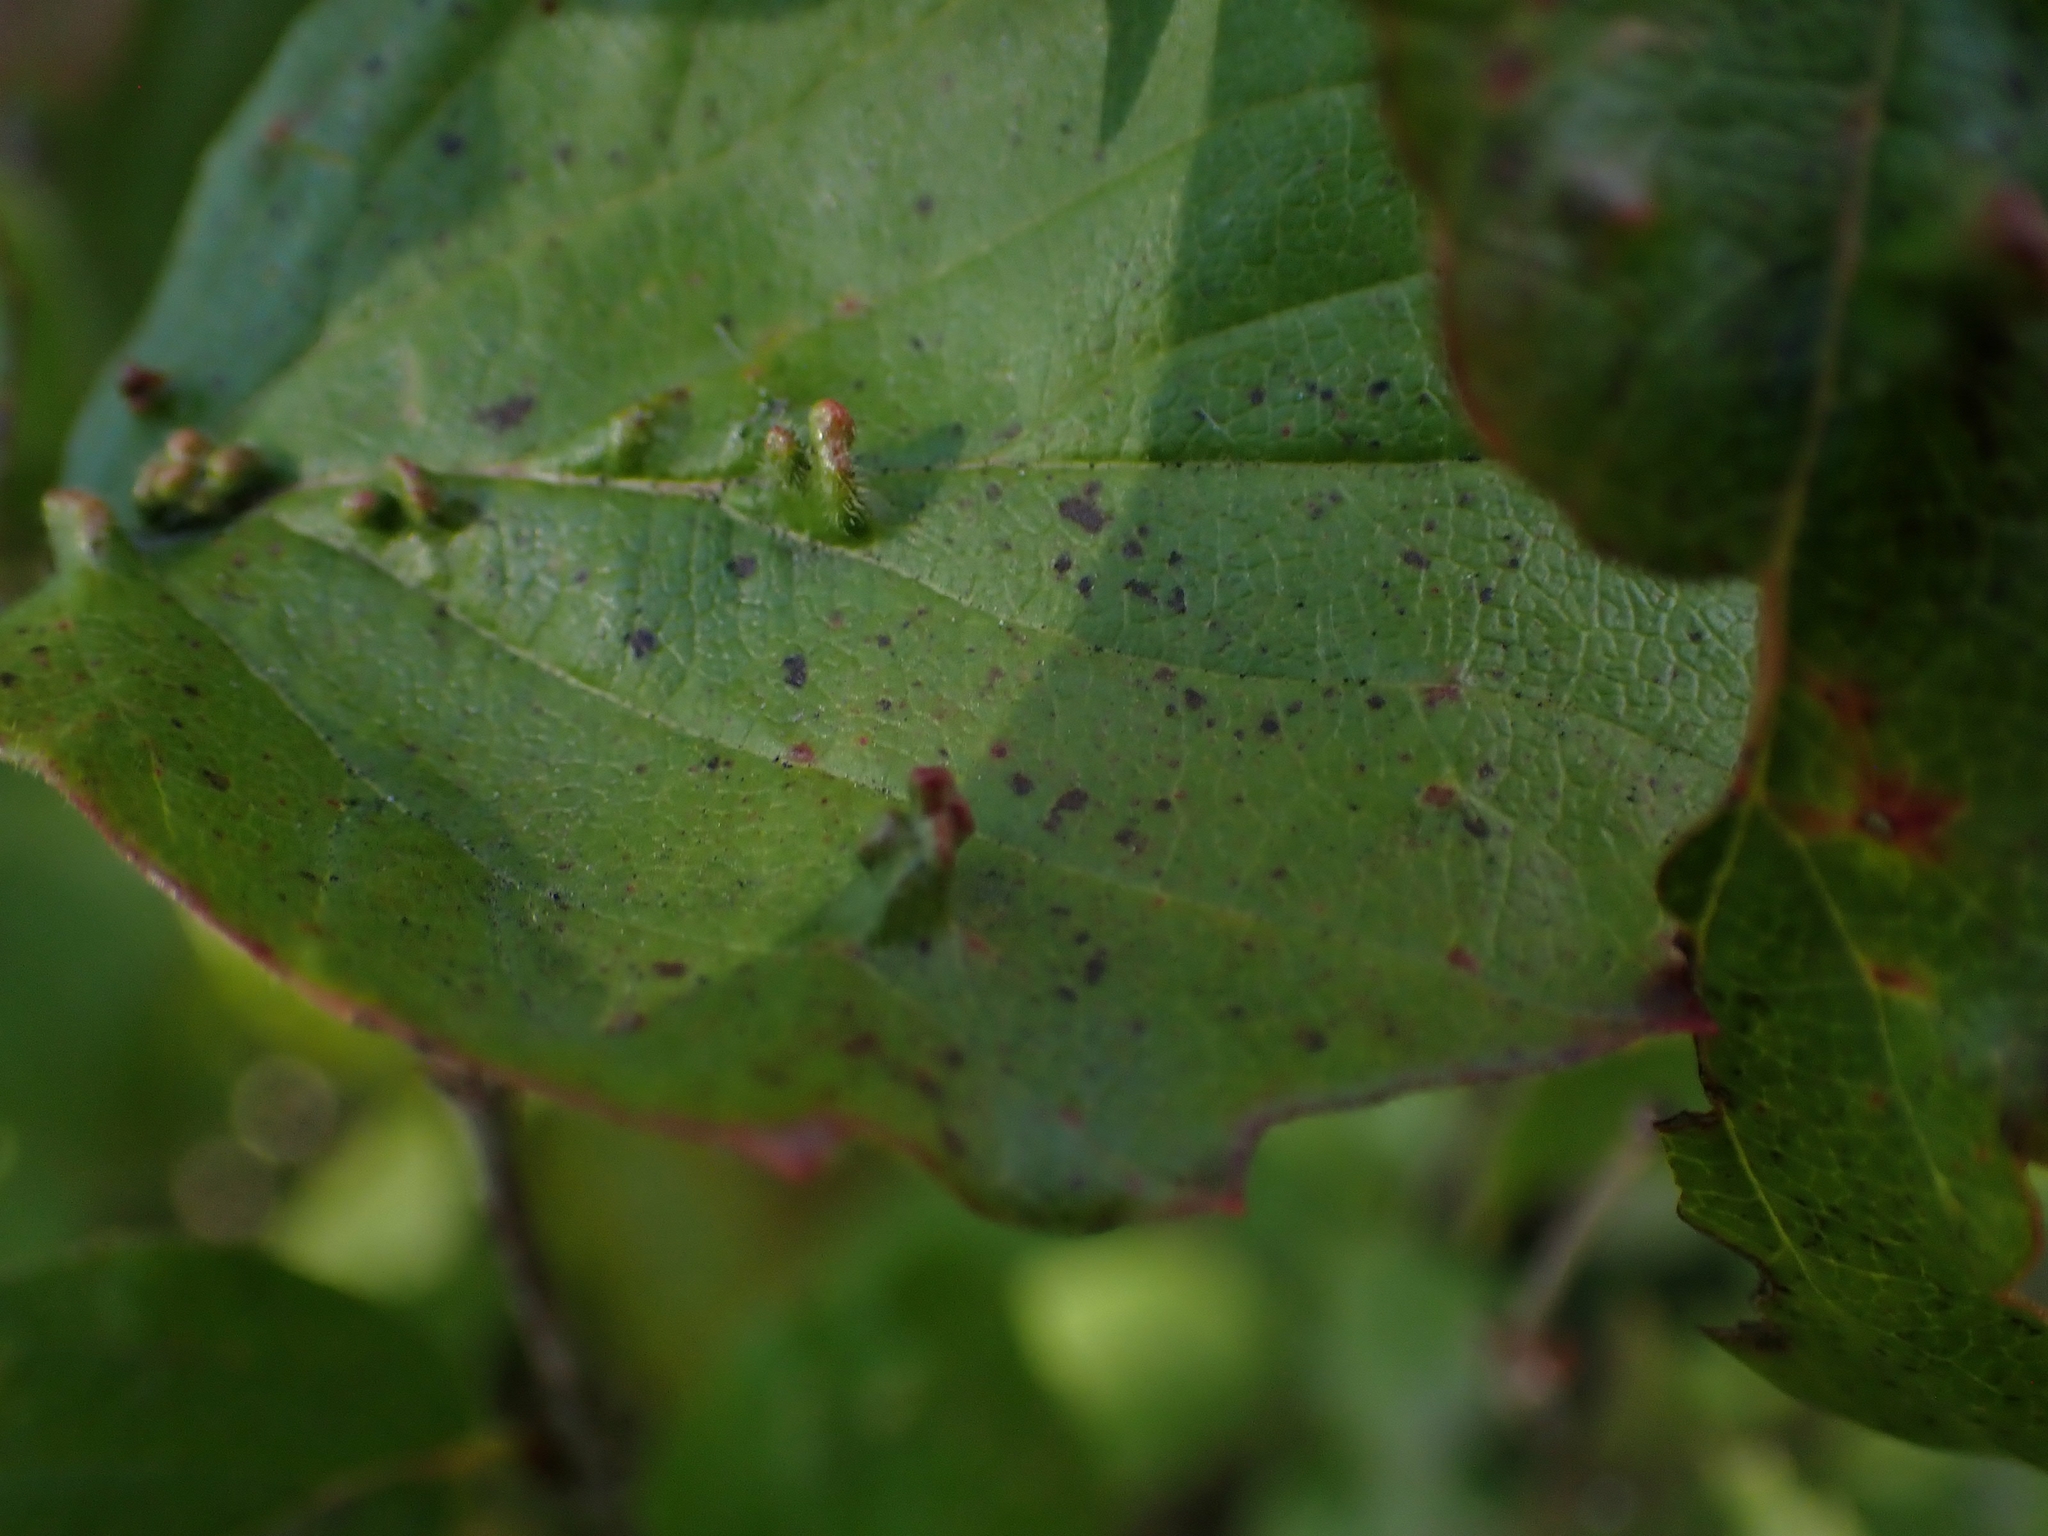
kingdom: Animalia
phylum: Arthropoda
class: Arachnida
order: Trombidiformes
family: Eriophyidae
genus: Eriophyes
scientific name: Eriophyes
